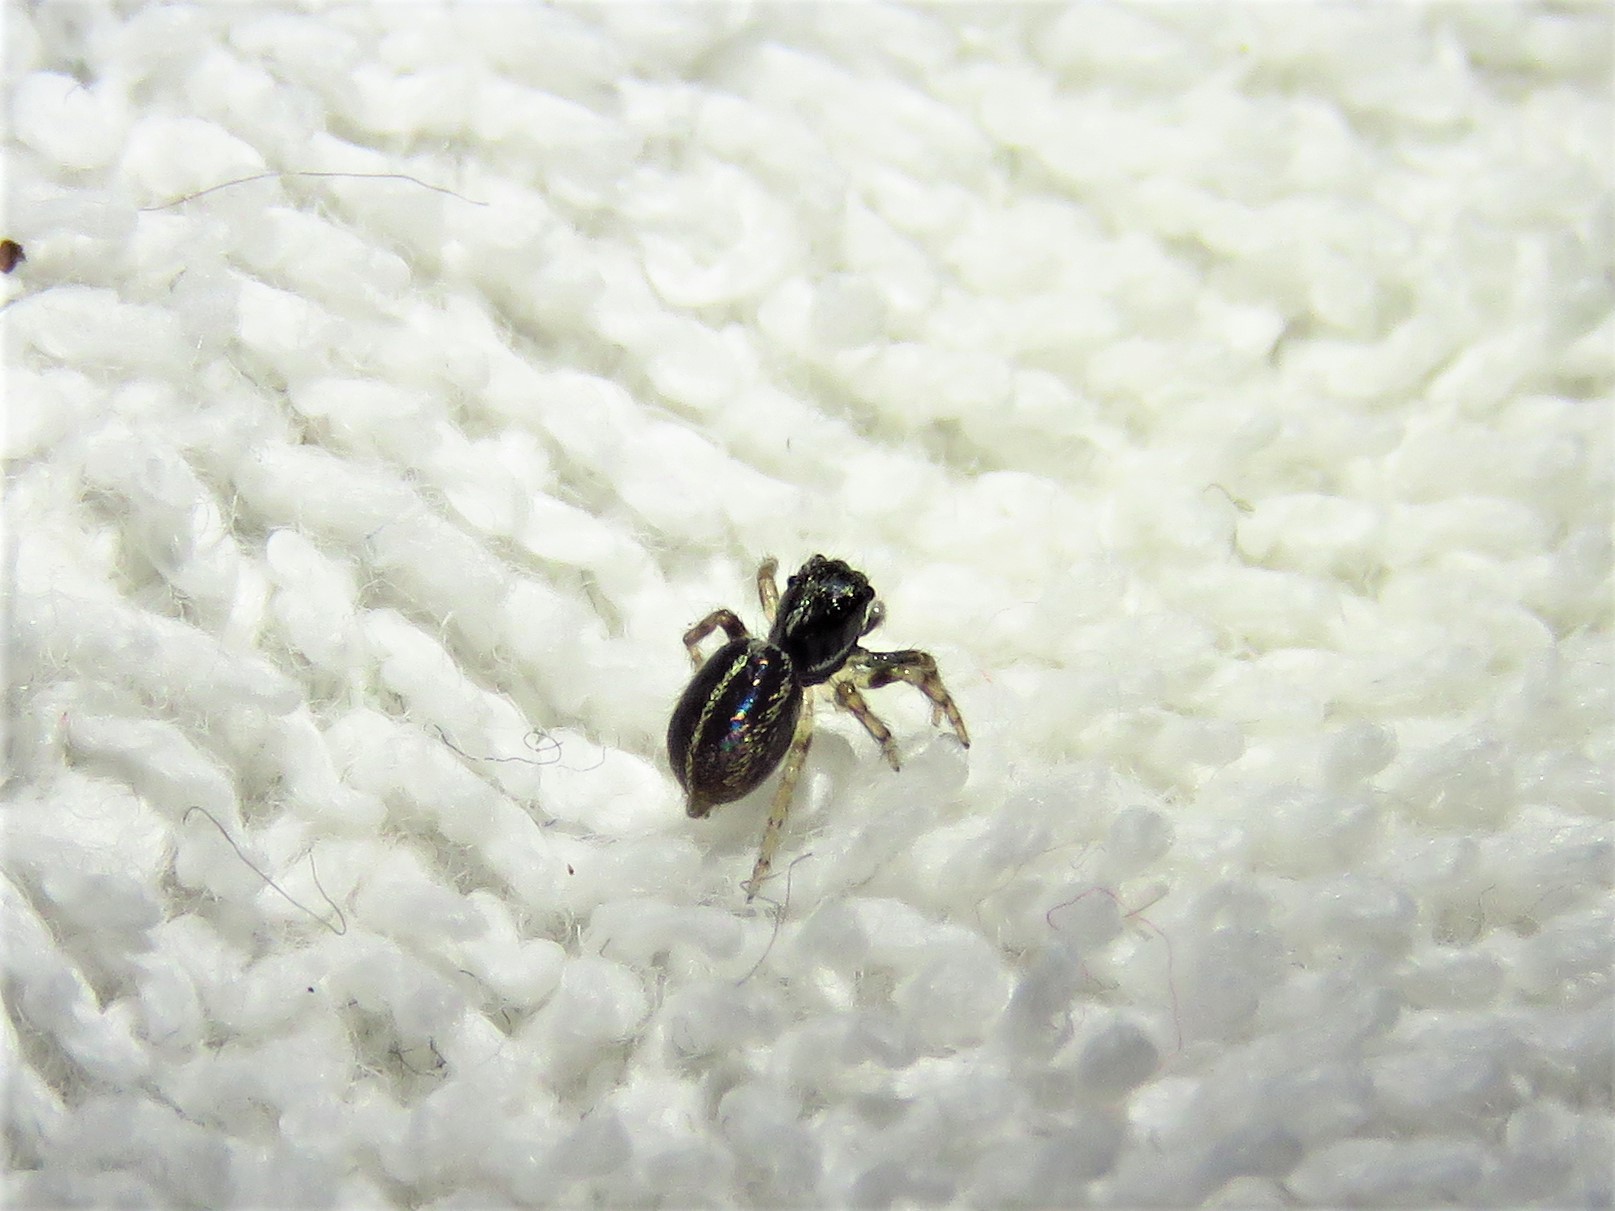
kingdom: Animalia
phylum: Arthropoda
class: Arachnida
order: Araneae
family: Salticidae
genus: Anasaitis
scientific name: Anasaitis canosa
